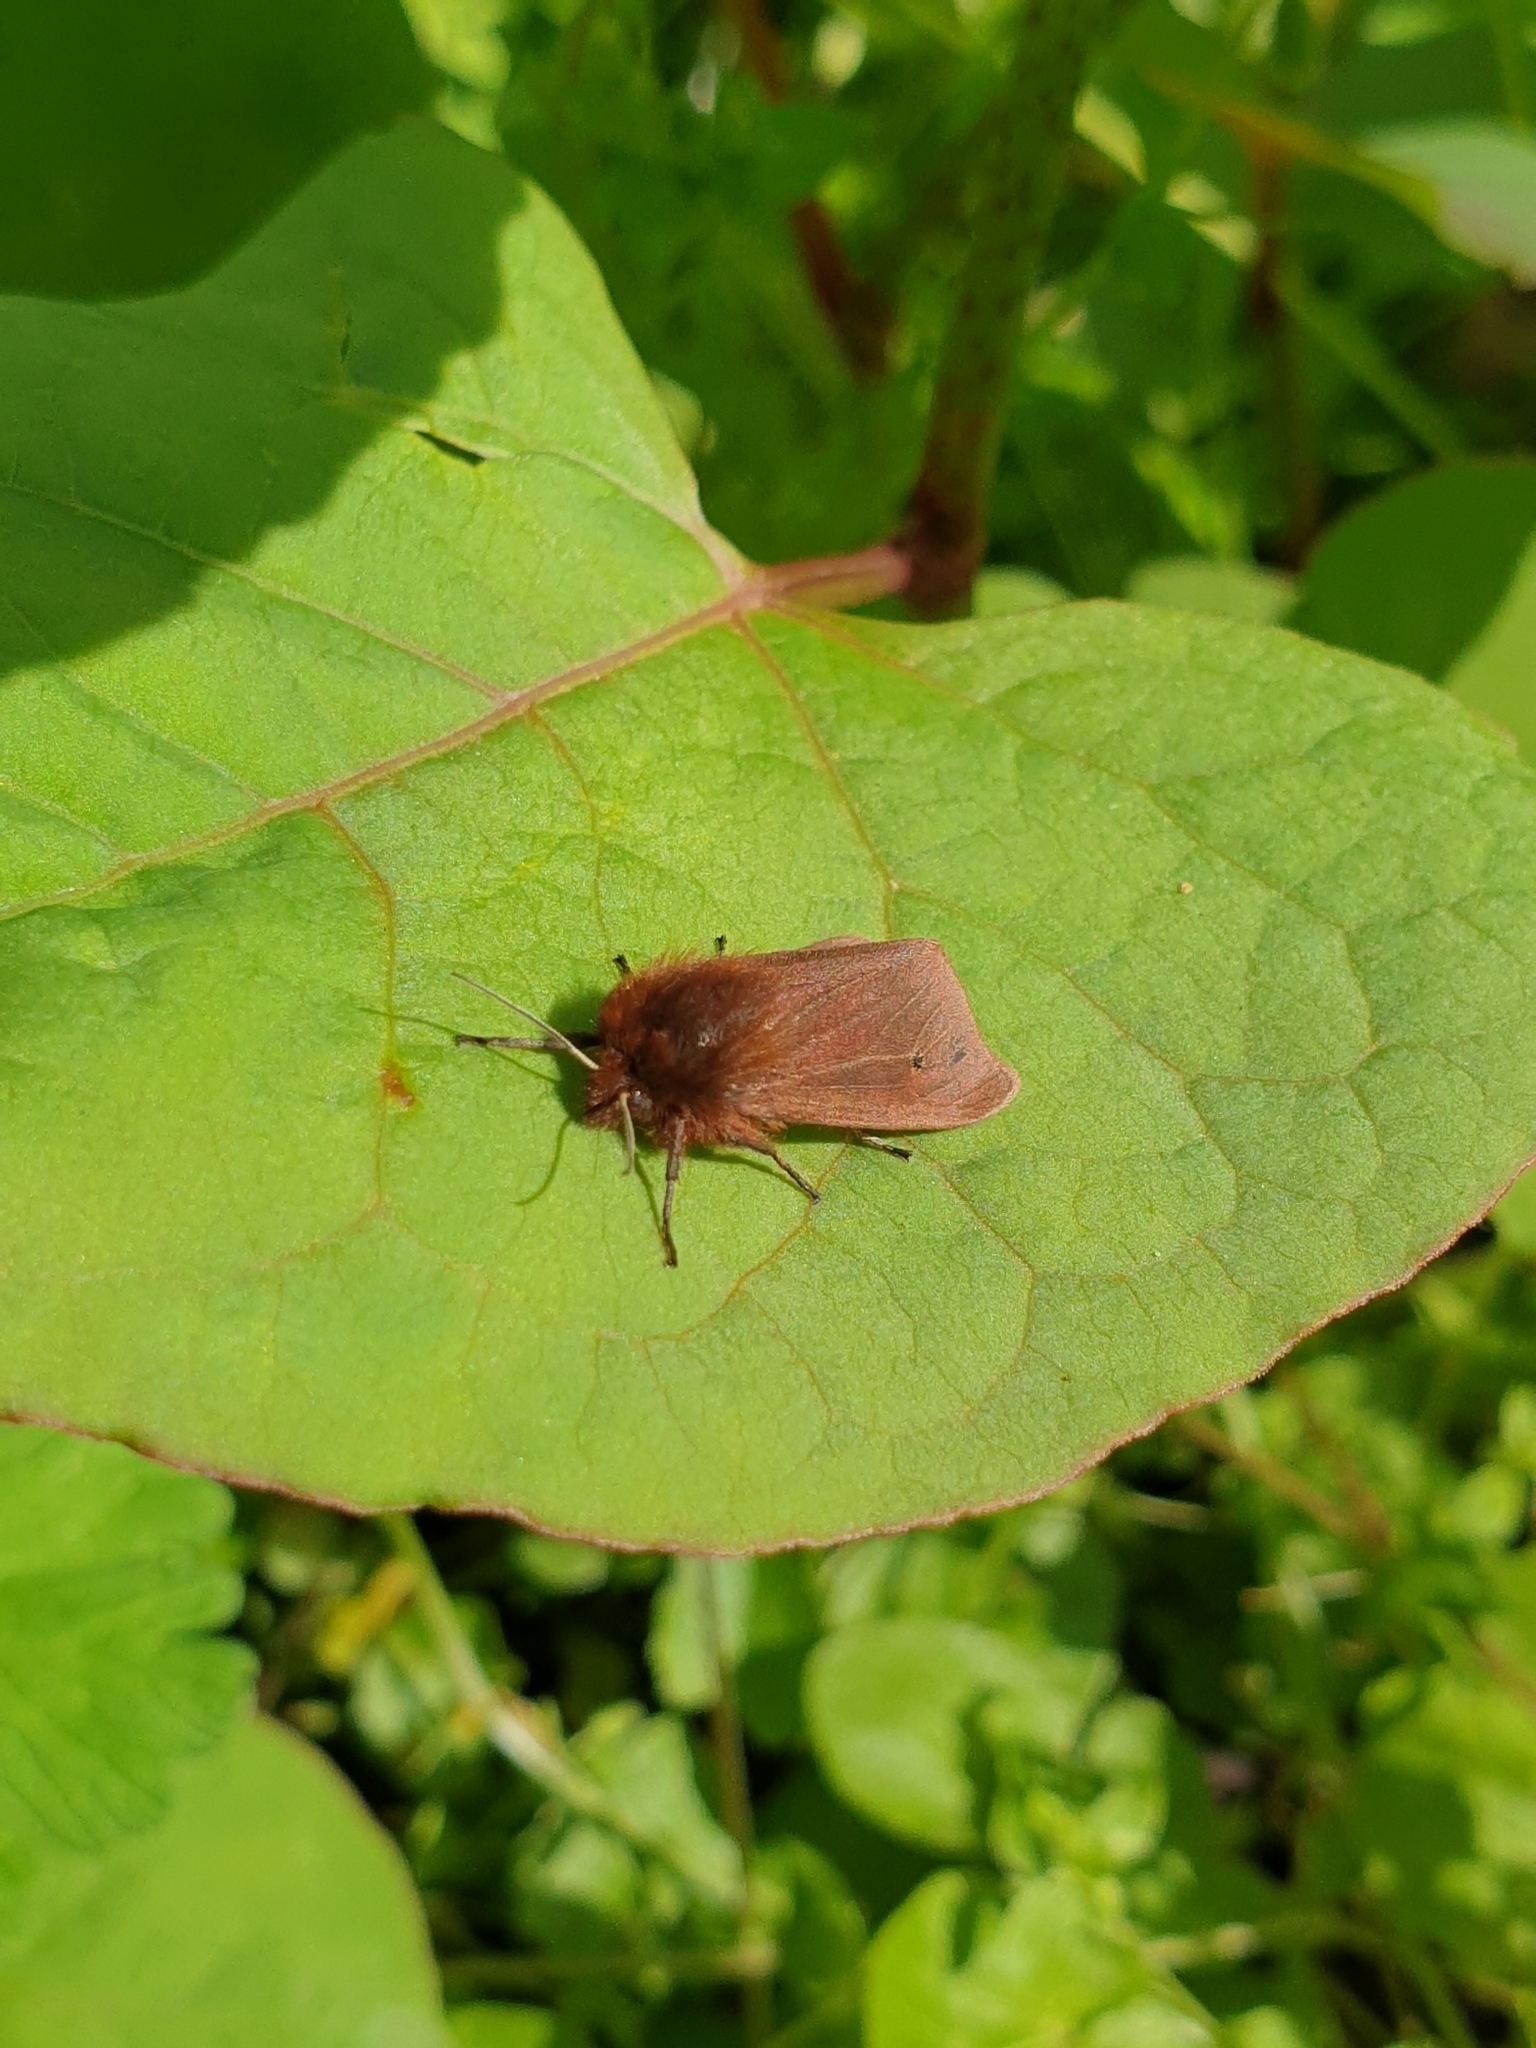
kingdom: Animalia
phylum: Arthropoda
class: Insecta
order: Lepidoptera
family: Erebidae
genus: Phragmatobia
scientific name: Phragmatobia fuliginosa
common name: Ruby tiger
